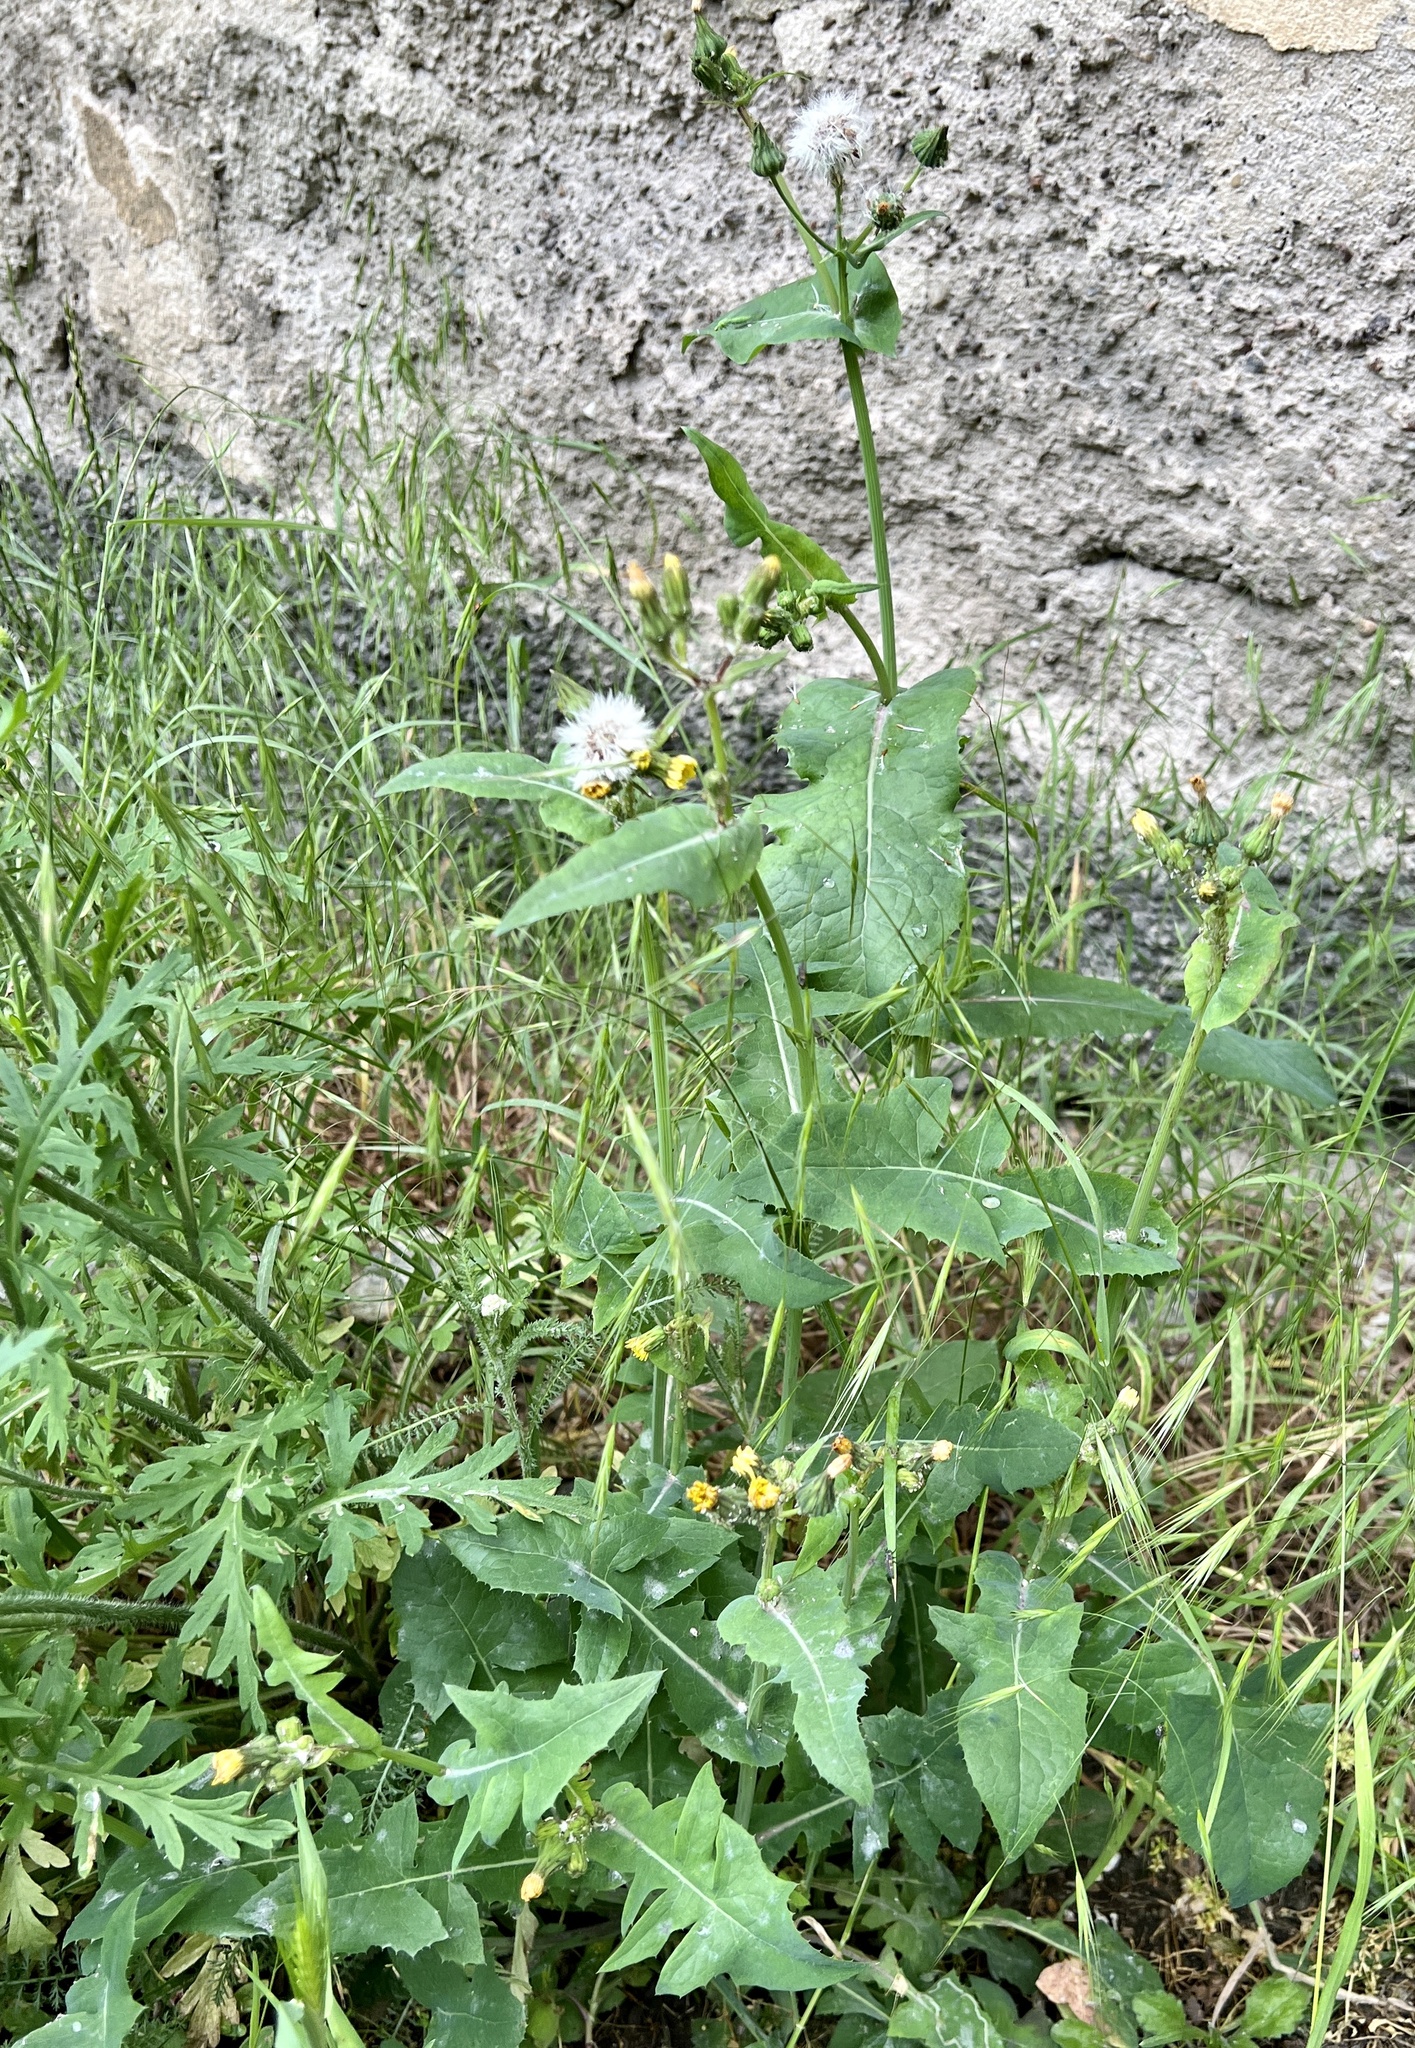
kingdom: Plantae
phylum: Tracheophyta
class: Magnoliopsida
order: Asterales
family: Asteraceae
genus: Sonchus
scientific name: Sonchus oleraceus
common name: Common sowthistle
